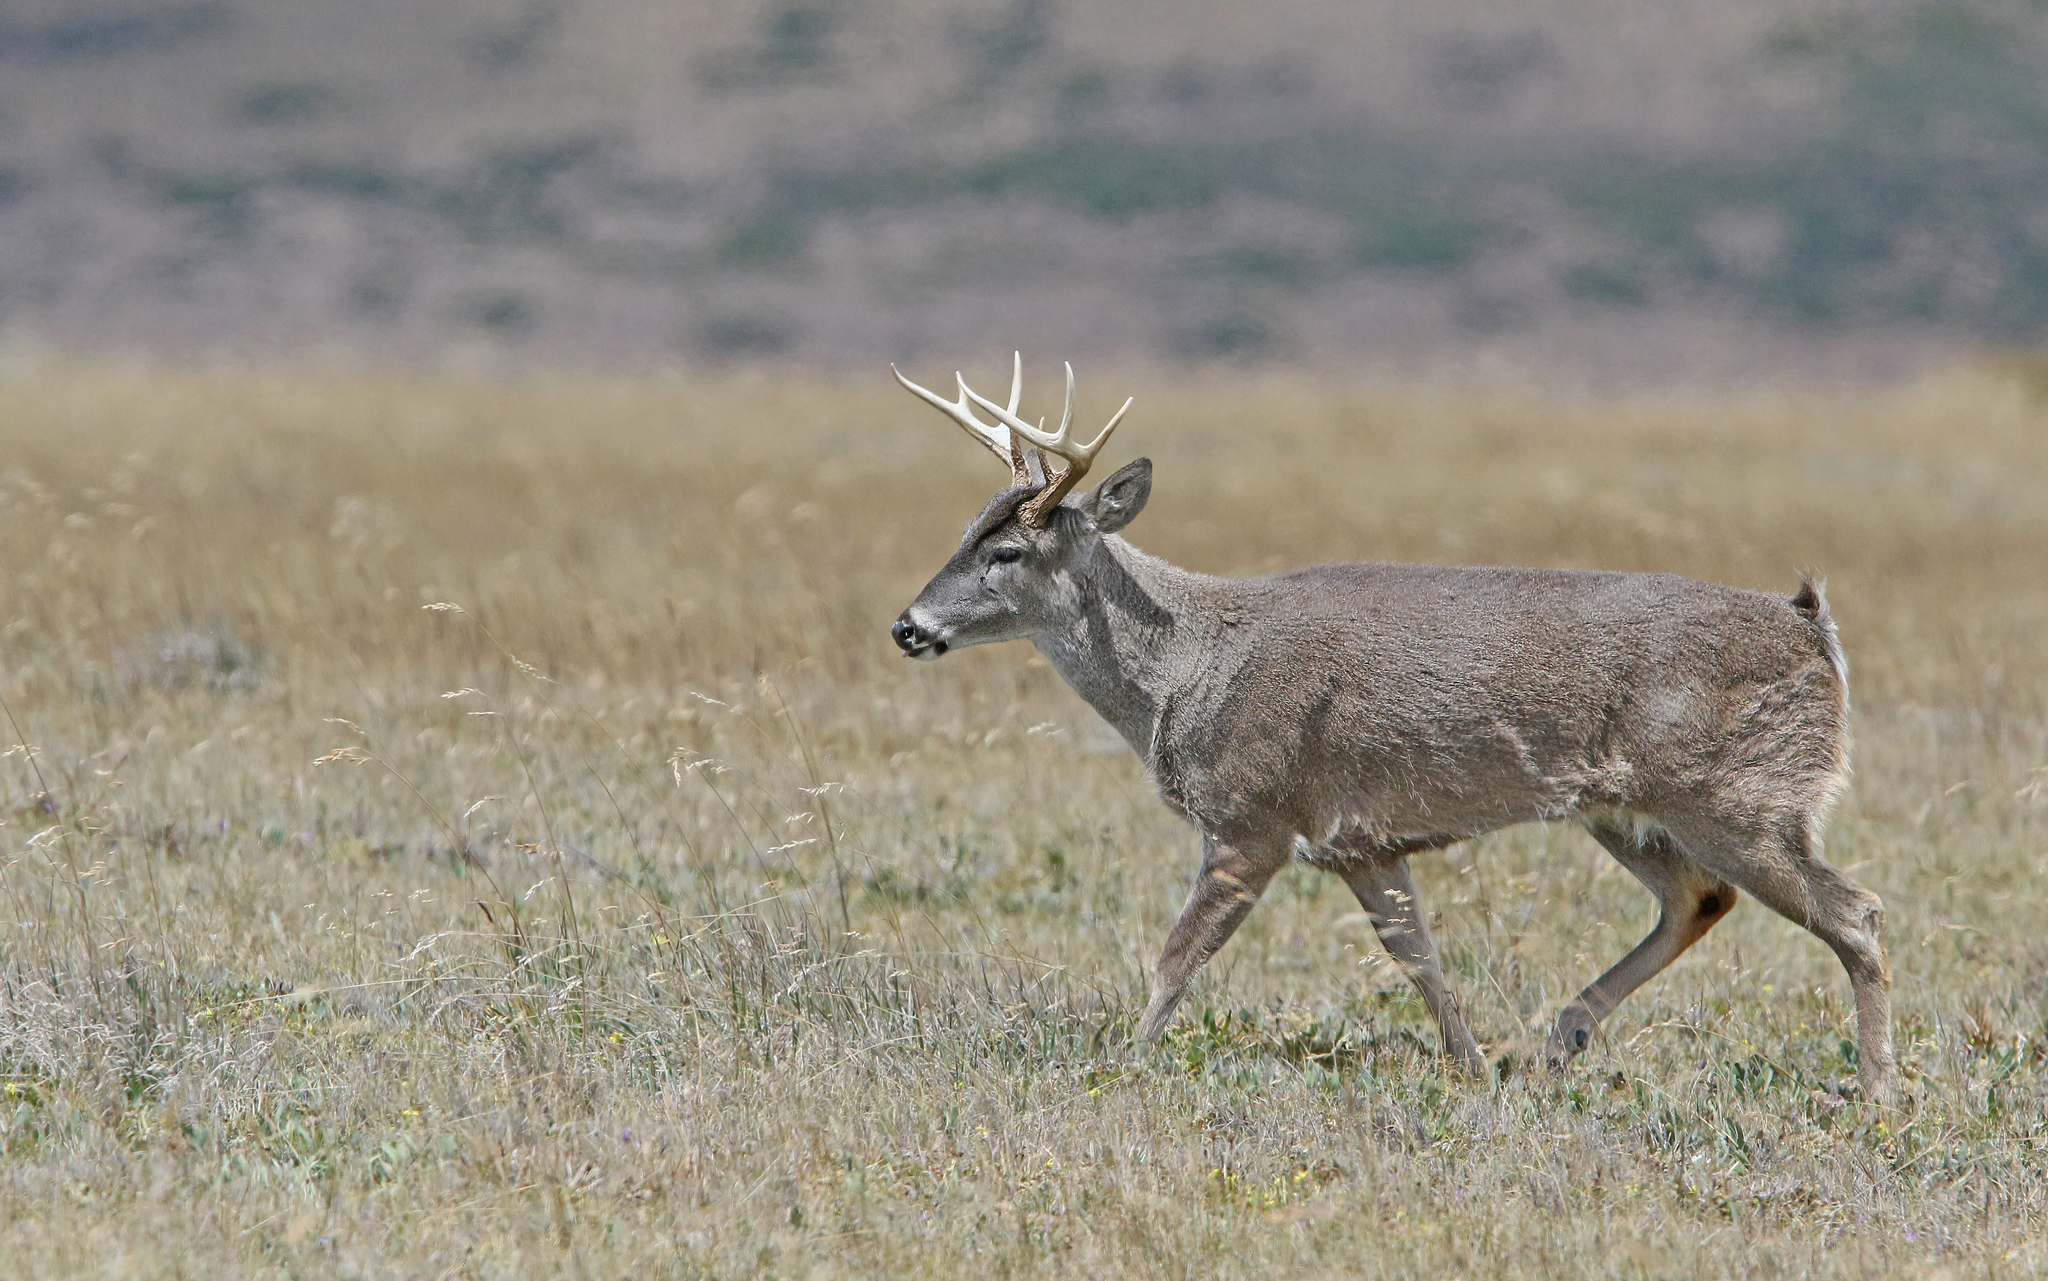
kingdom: Animalia
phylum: Chordata
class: Mammalia
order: Artiodactyla
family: Cervidae
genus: Odocoileus
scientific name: Odocoileus virginianus
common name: White-tailed deer
